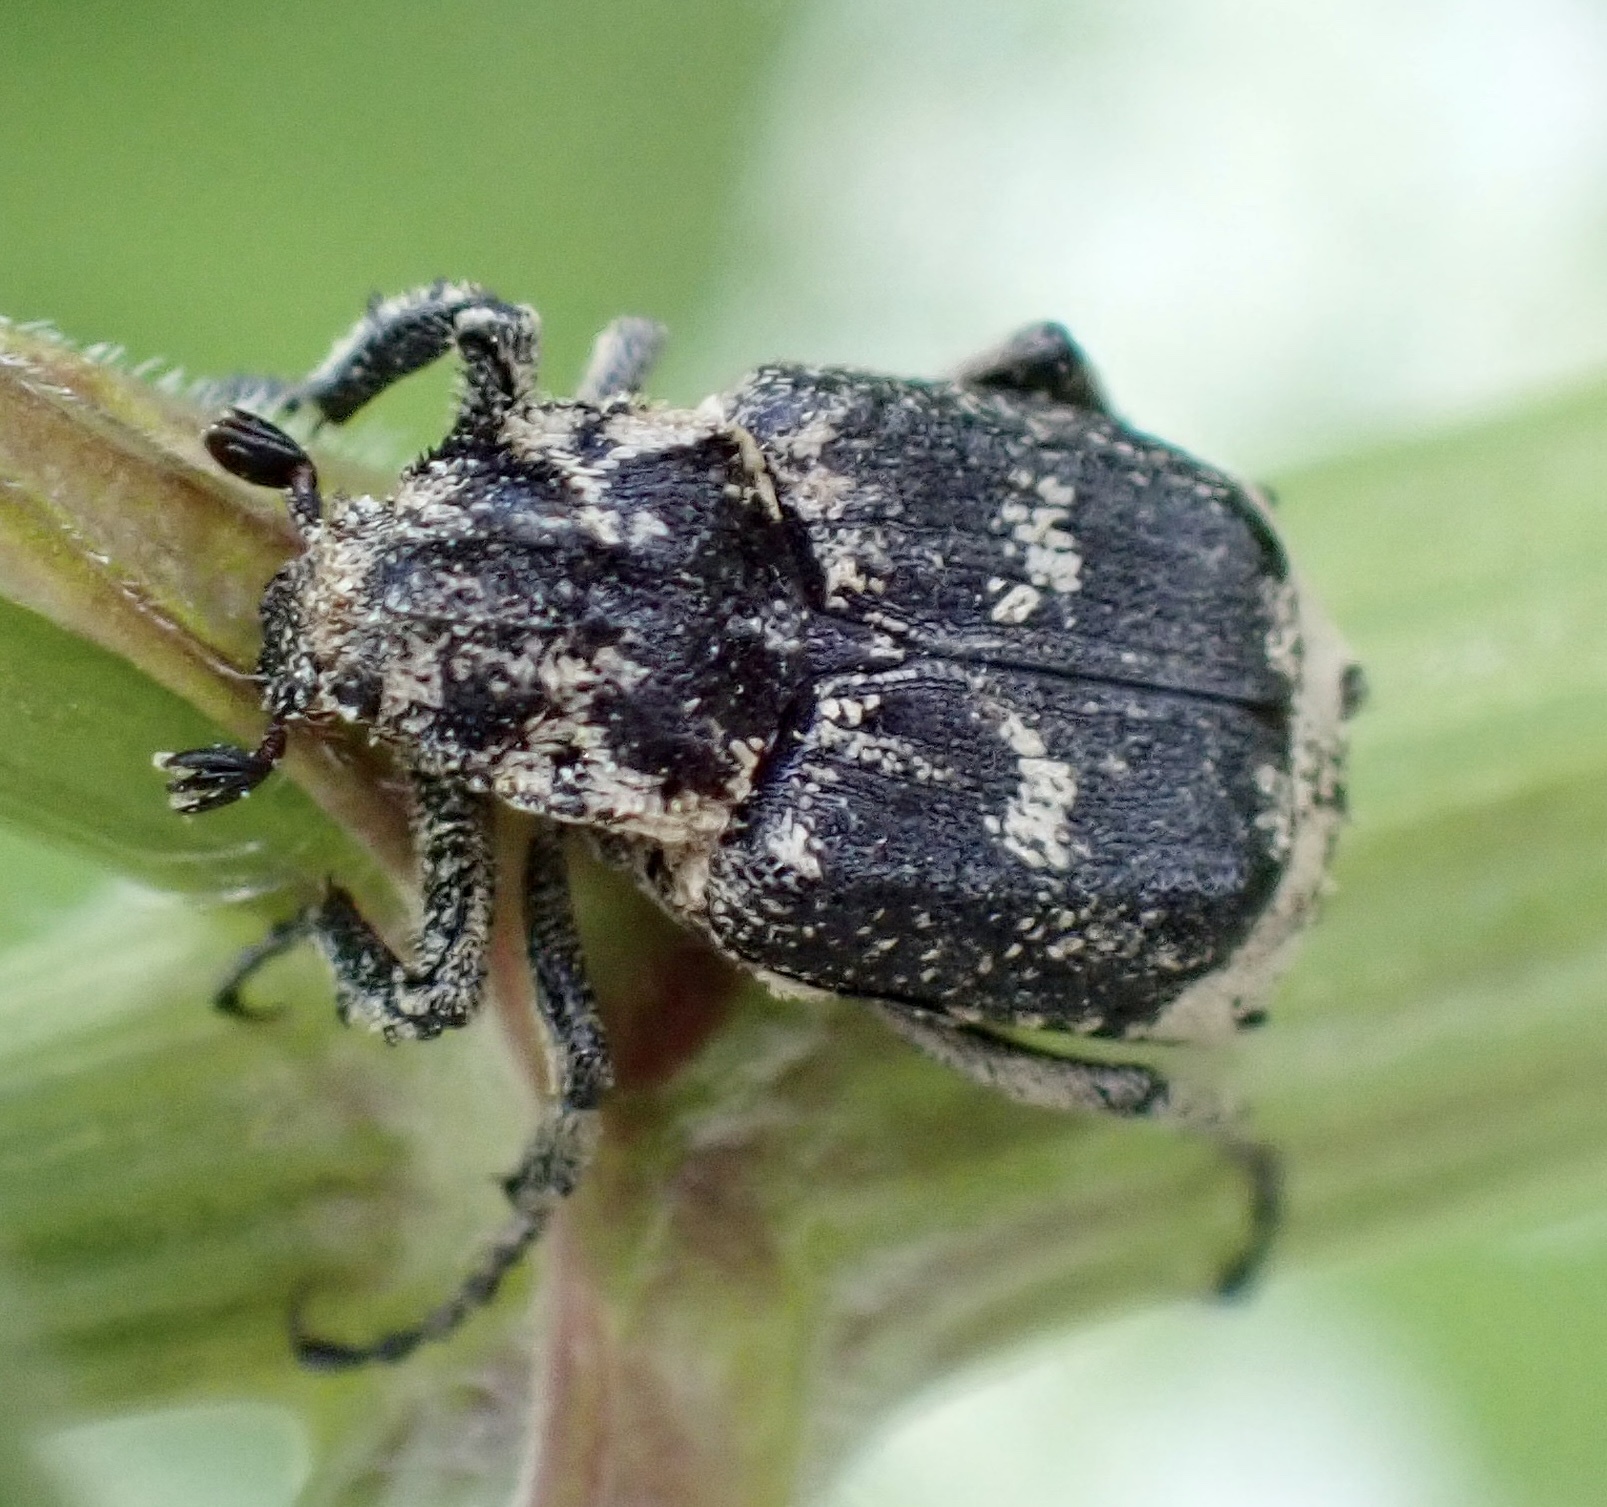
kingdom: Animalia
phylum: Arthropoda
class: Insecta
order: Coleoptera
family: Scarabaeidae
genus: Valgus
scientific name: Valgus hemipterus
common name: Bug flower chafer
